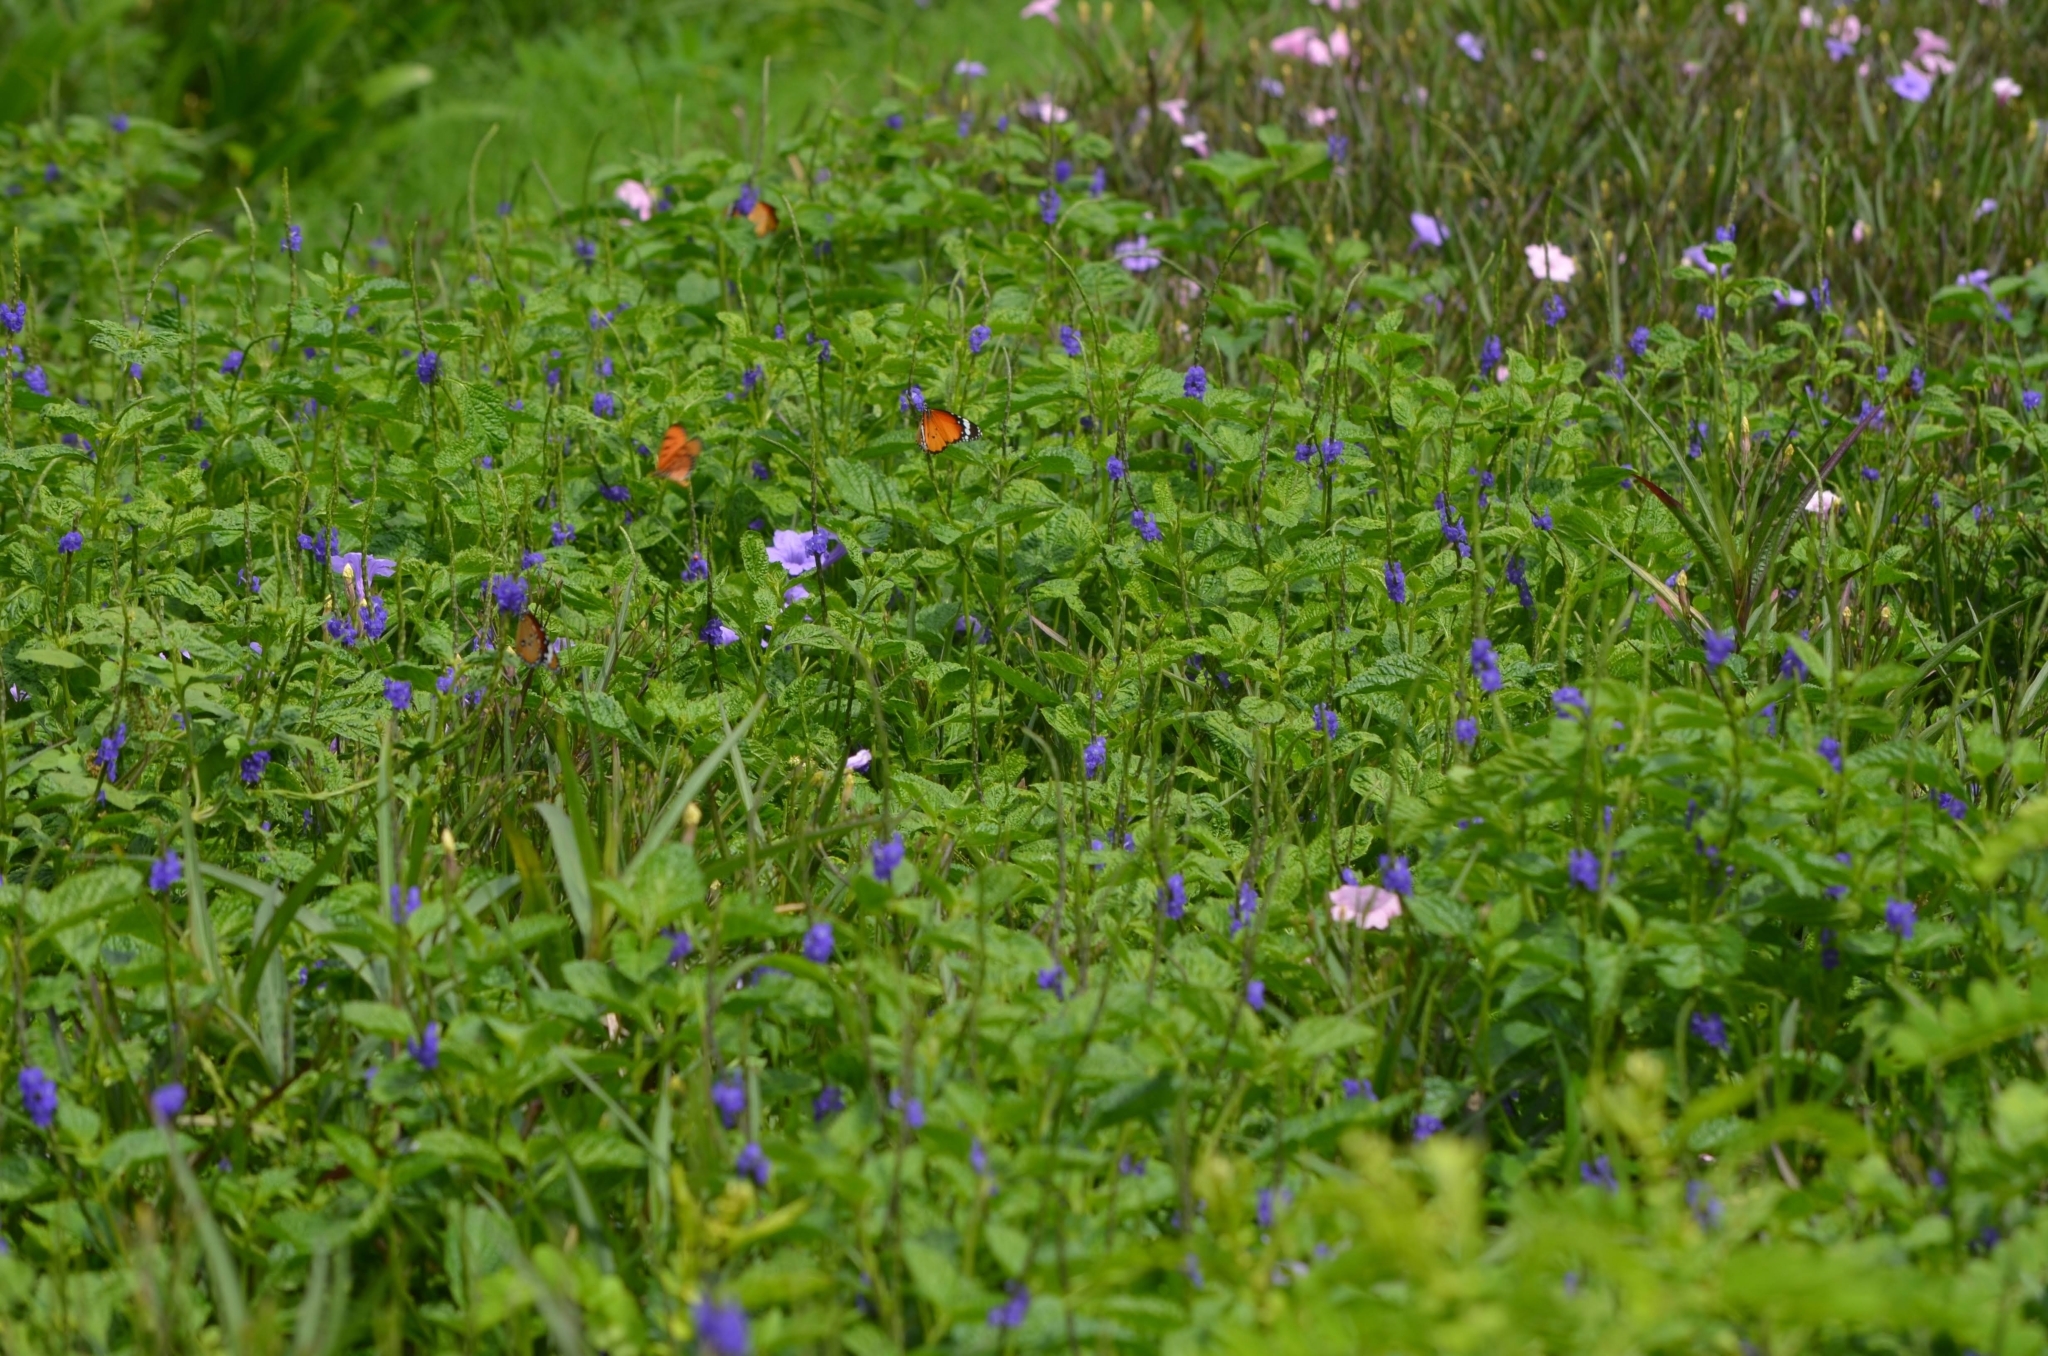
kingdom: Animalia
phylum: Arthropoda
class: Insecta
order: Lepidoptera
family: Nymphalidae
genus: Danaus
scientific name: Danaus chrysippus
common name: Plain tiger
